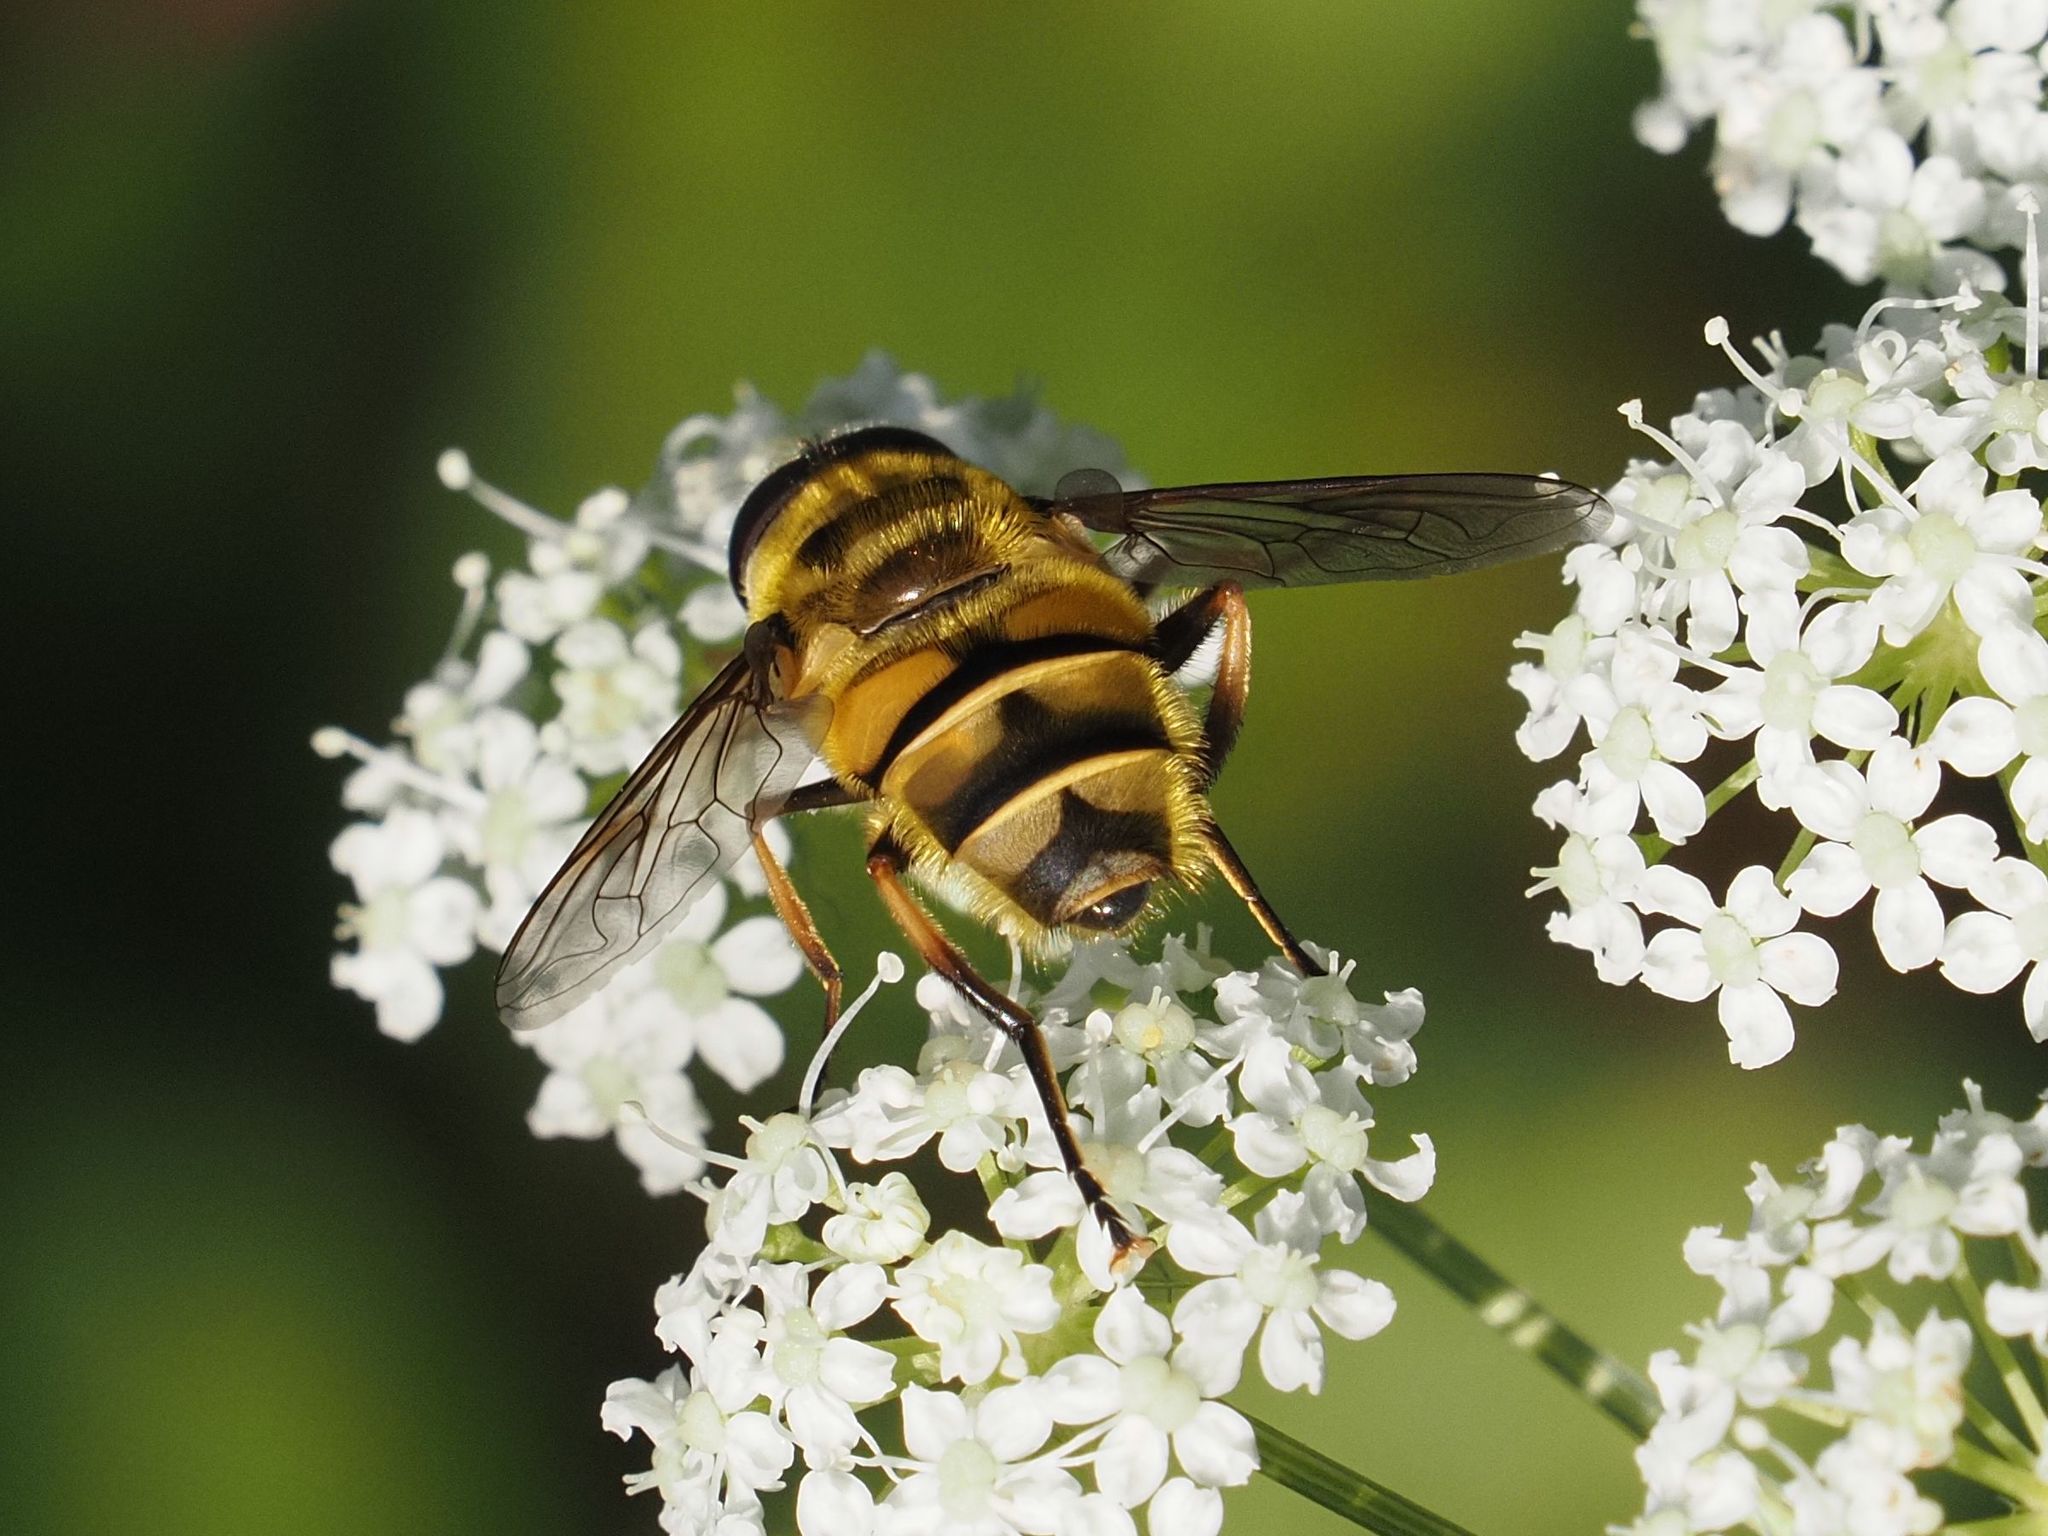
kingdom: Animalia
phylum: Arthropoda
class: Insecta
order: Diptera
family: Syrphidae
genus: Myathropa
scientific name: Myathropa florea
